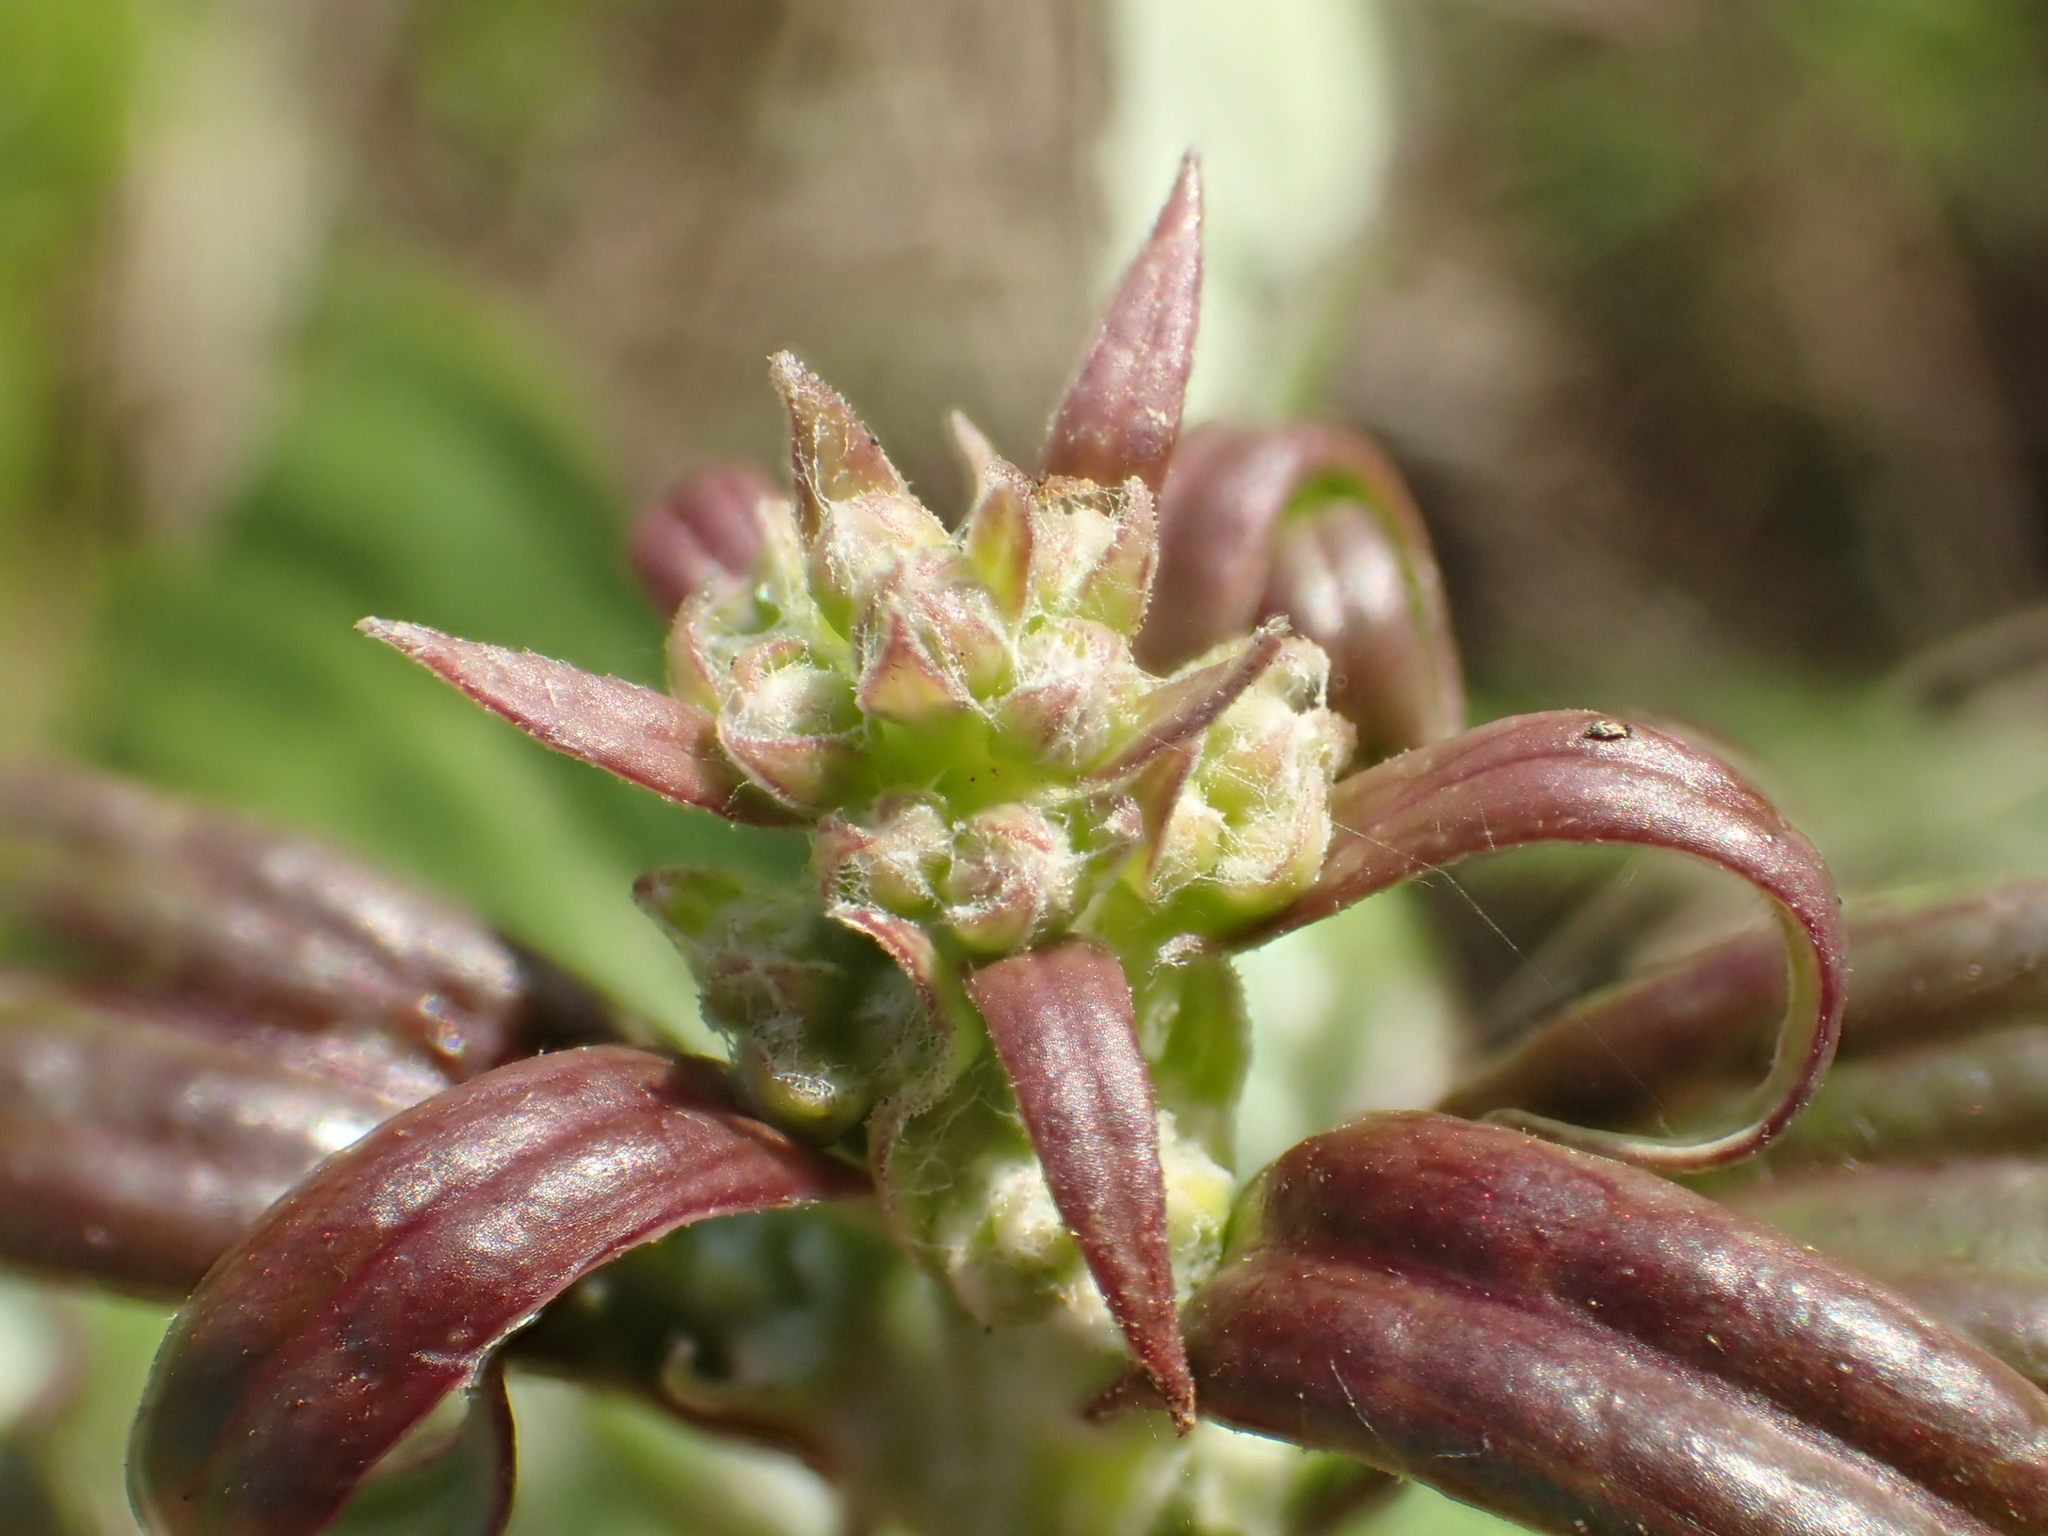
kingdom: Plantae
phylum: Tracheophyta
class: Magnoliopsida
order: Asterales
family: Asteraceae
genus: Syneilesis
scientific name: Syneilesis hayatae
